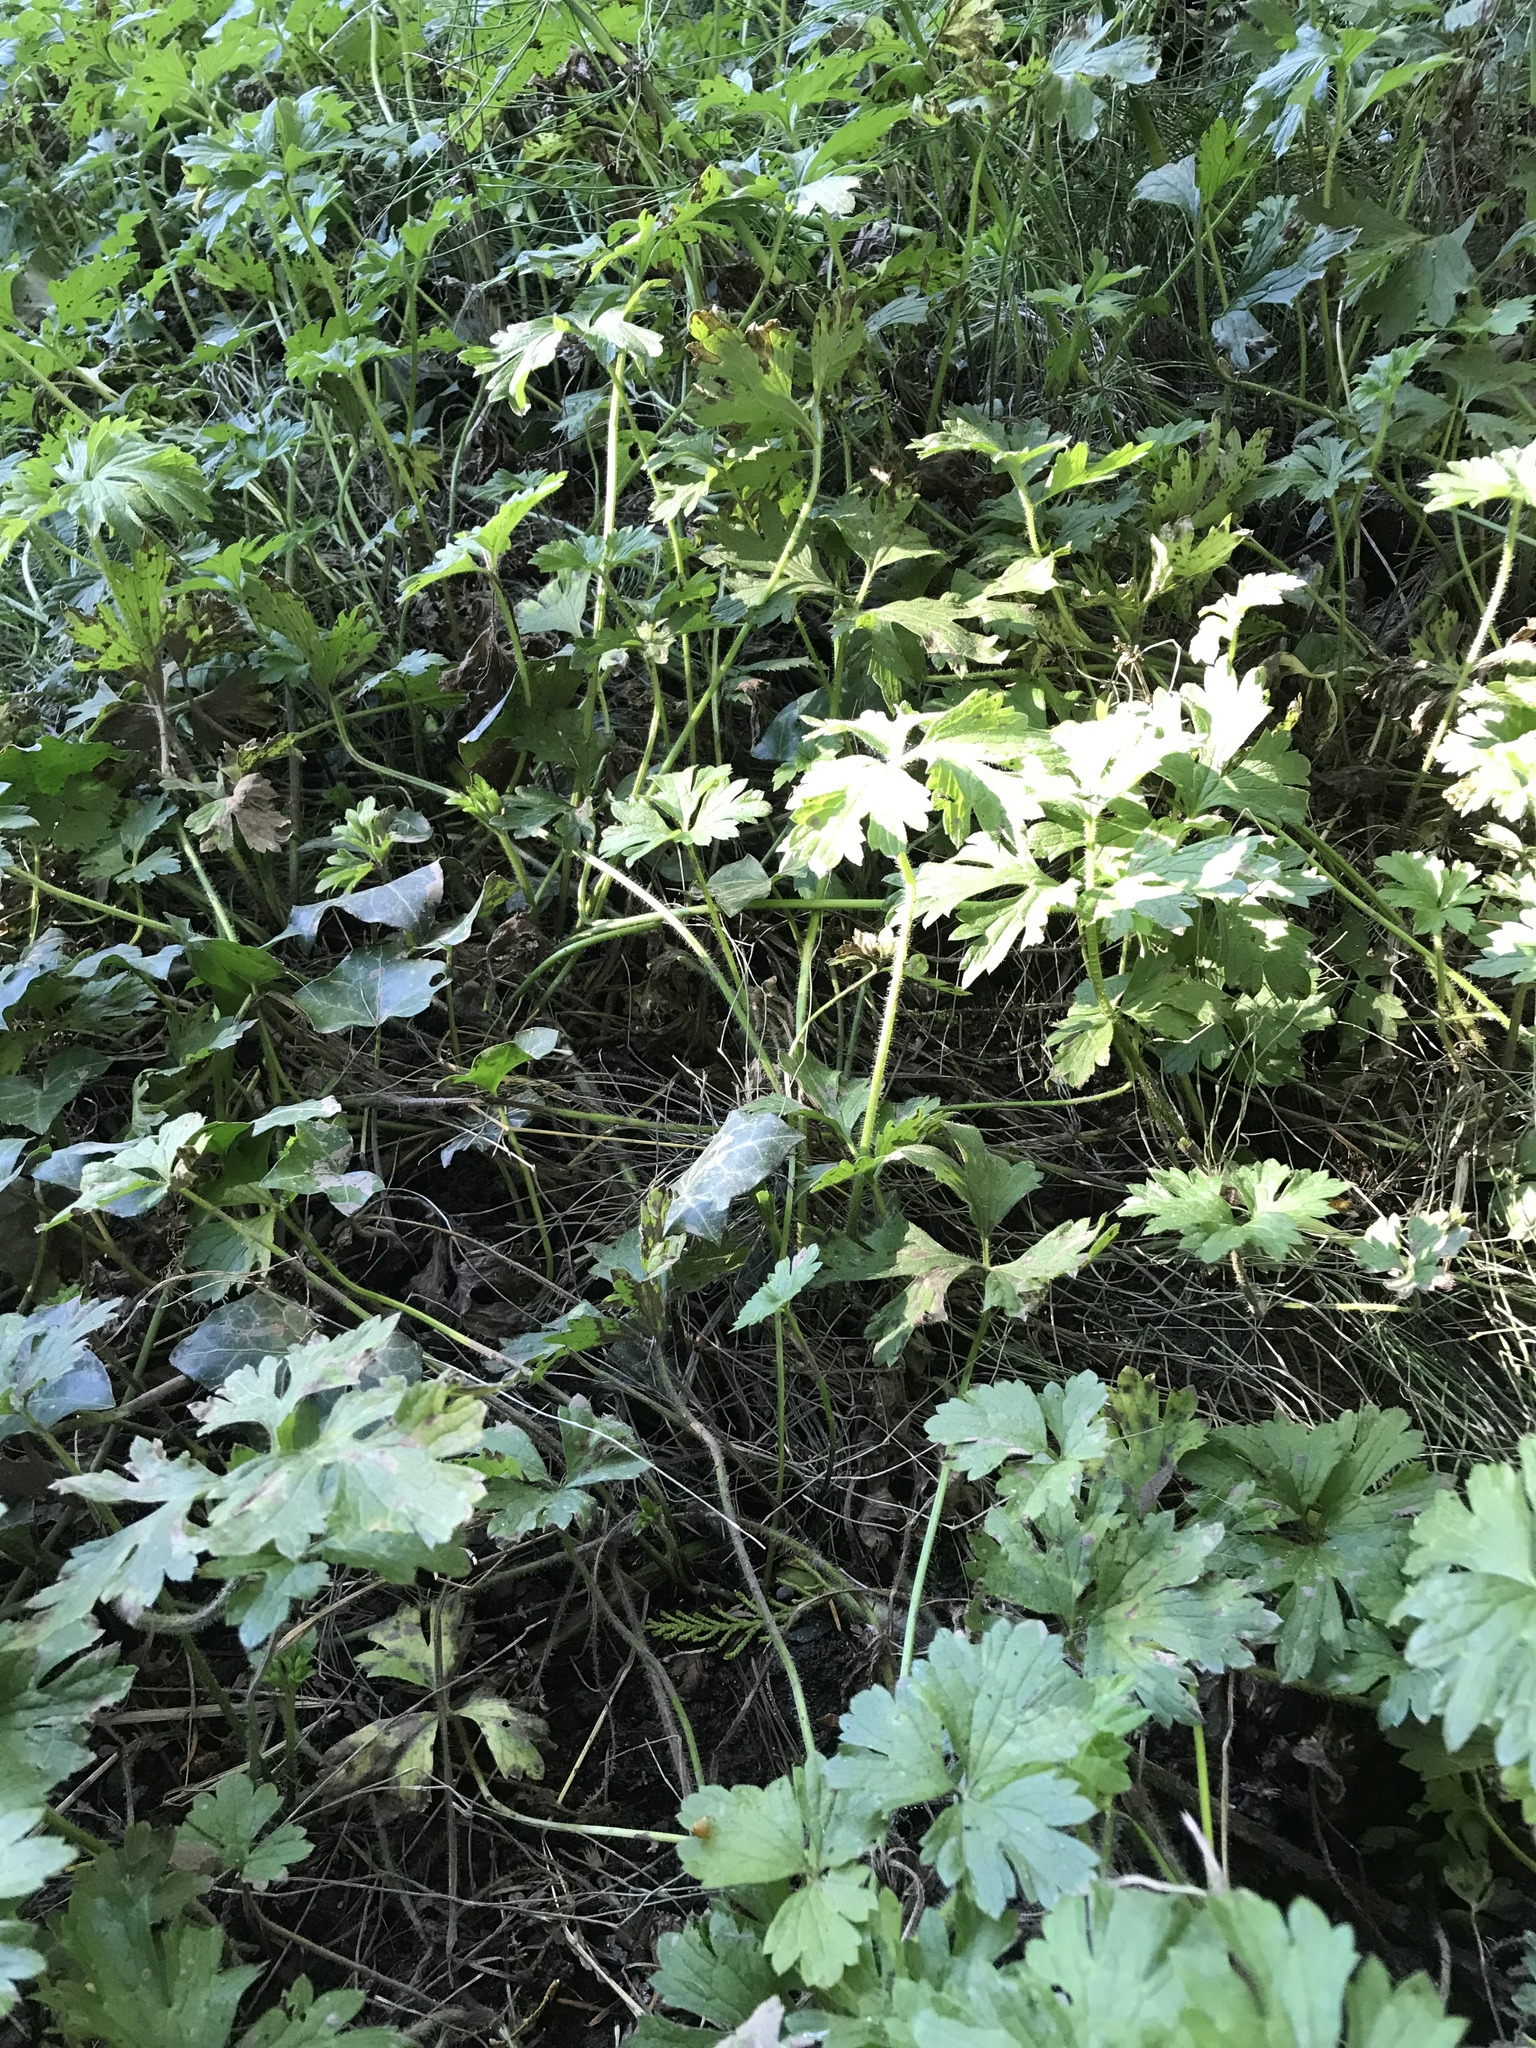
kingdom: Plantae
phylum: Tracheophyta
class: Magnoliopsida
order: Ranunculales
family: Ranunculaceae
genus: Ranunculus
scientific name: Ranunculus repens
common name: Creeping buttercup
